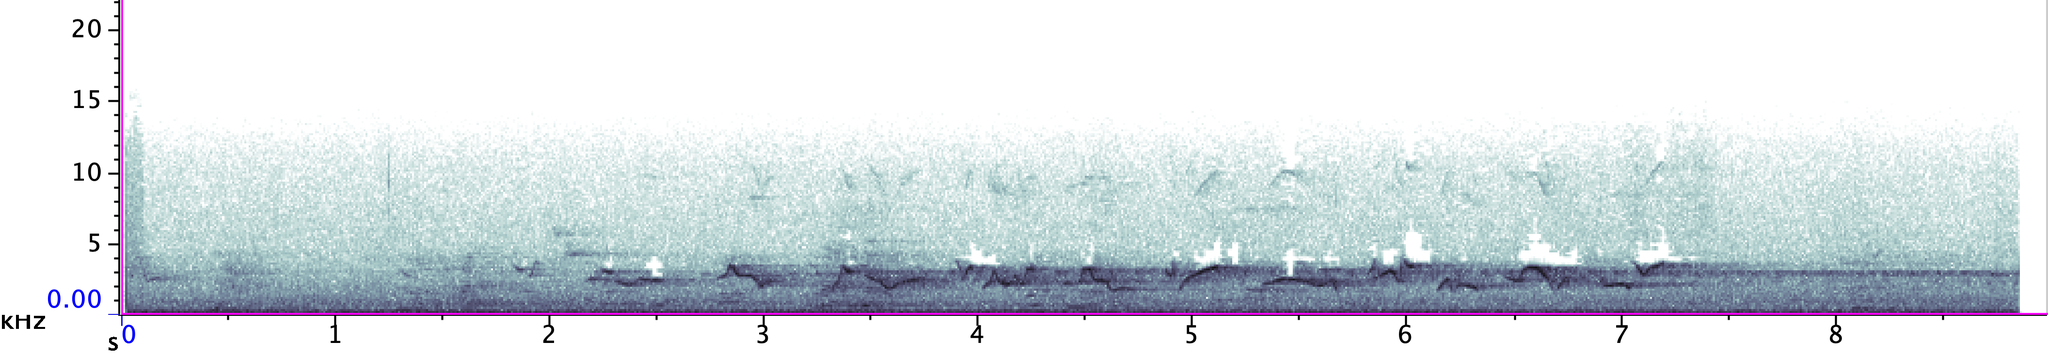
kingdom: Animalia
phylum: Chordata
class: Aves
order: Passeriformes
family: Turdidae
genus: Turdus
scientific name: Turdus migratorius
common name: American robin
